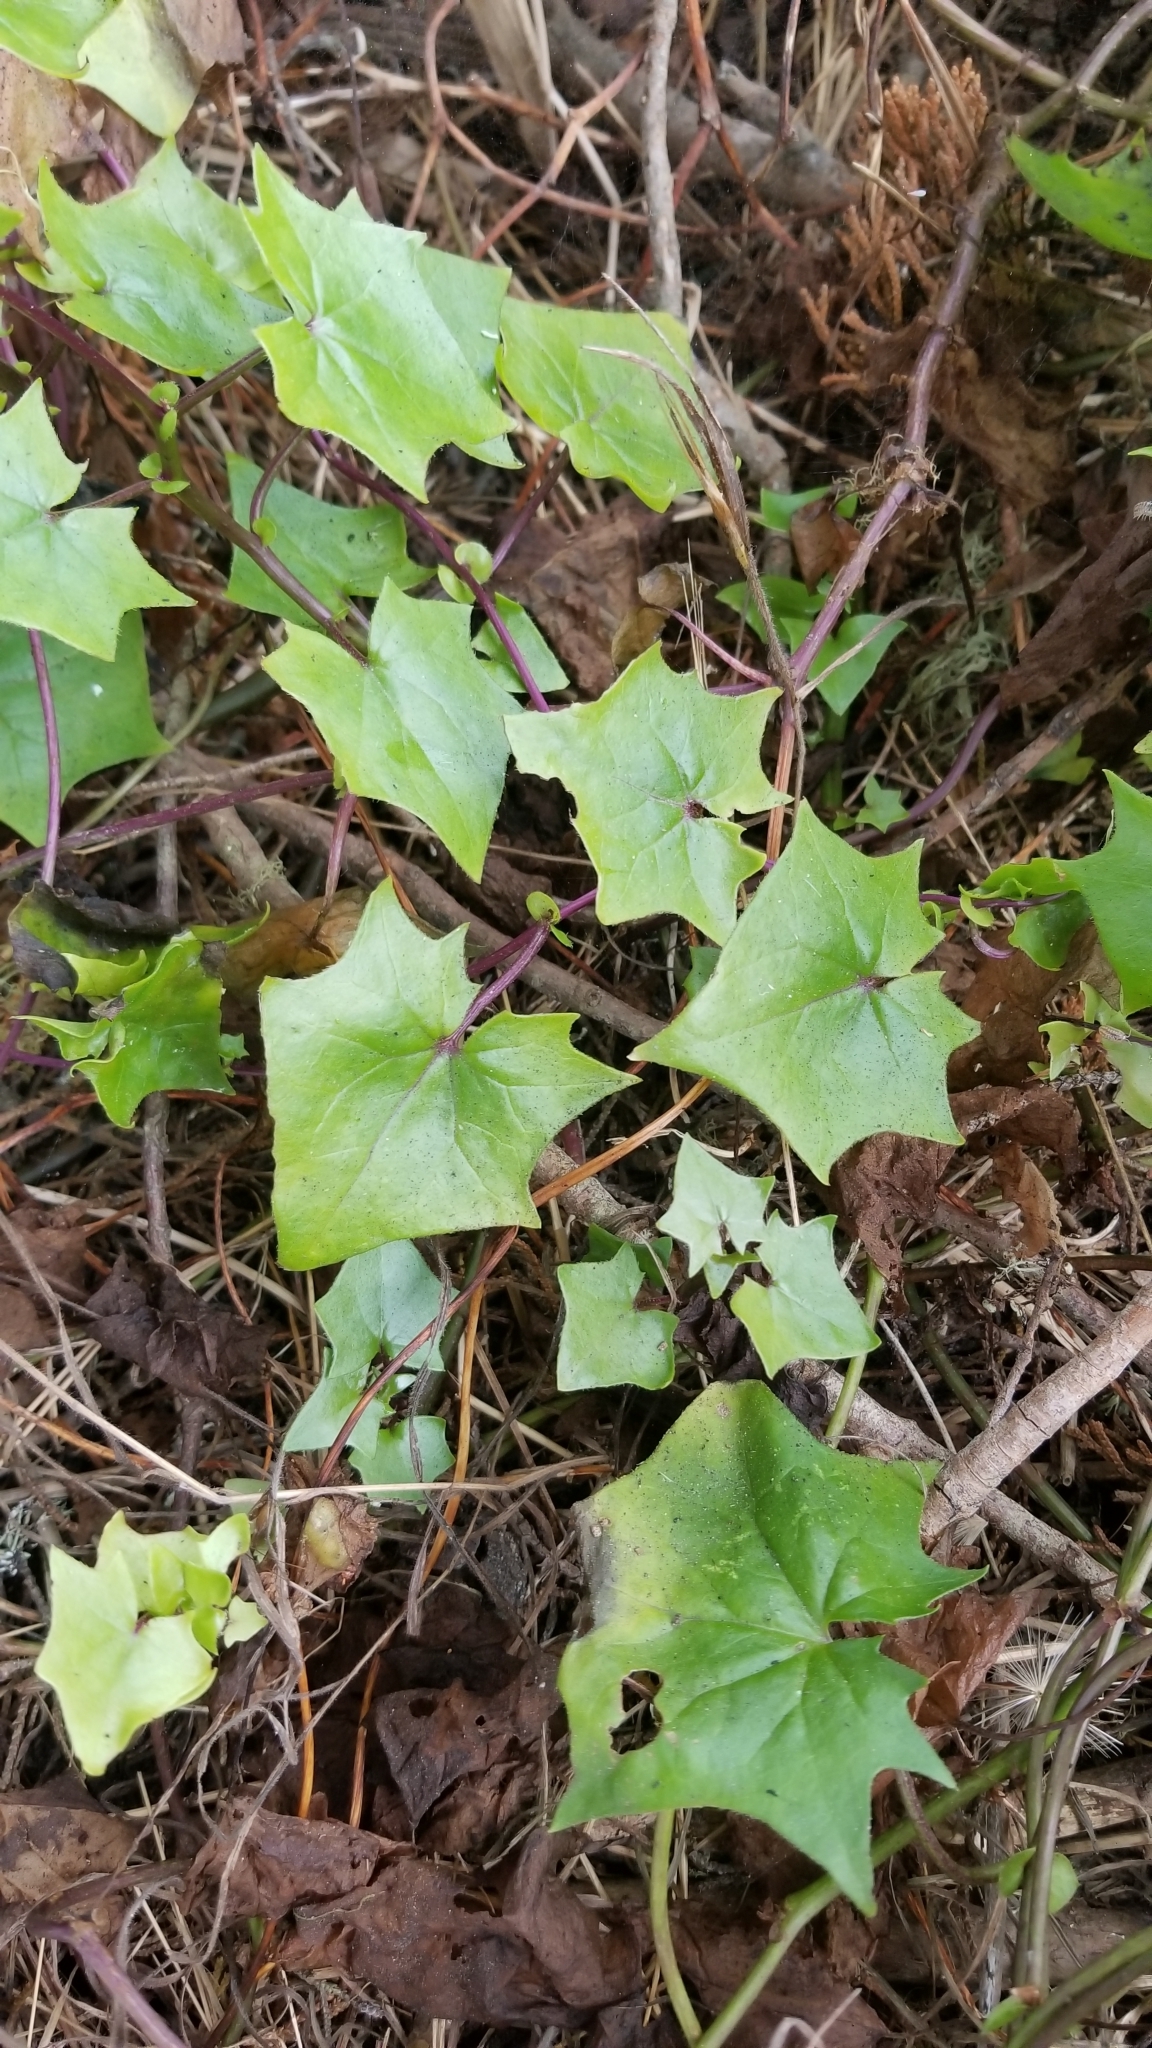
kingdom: Plantae
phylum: Tracheophyta
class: Magnoliopsida
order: Asterales
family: Asteraceae
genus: Delairea
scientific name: Delairea odorata
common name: Cape-ivy
